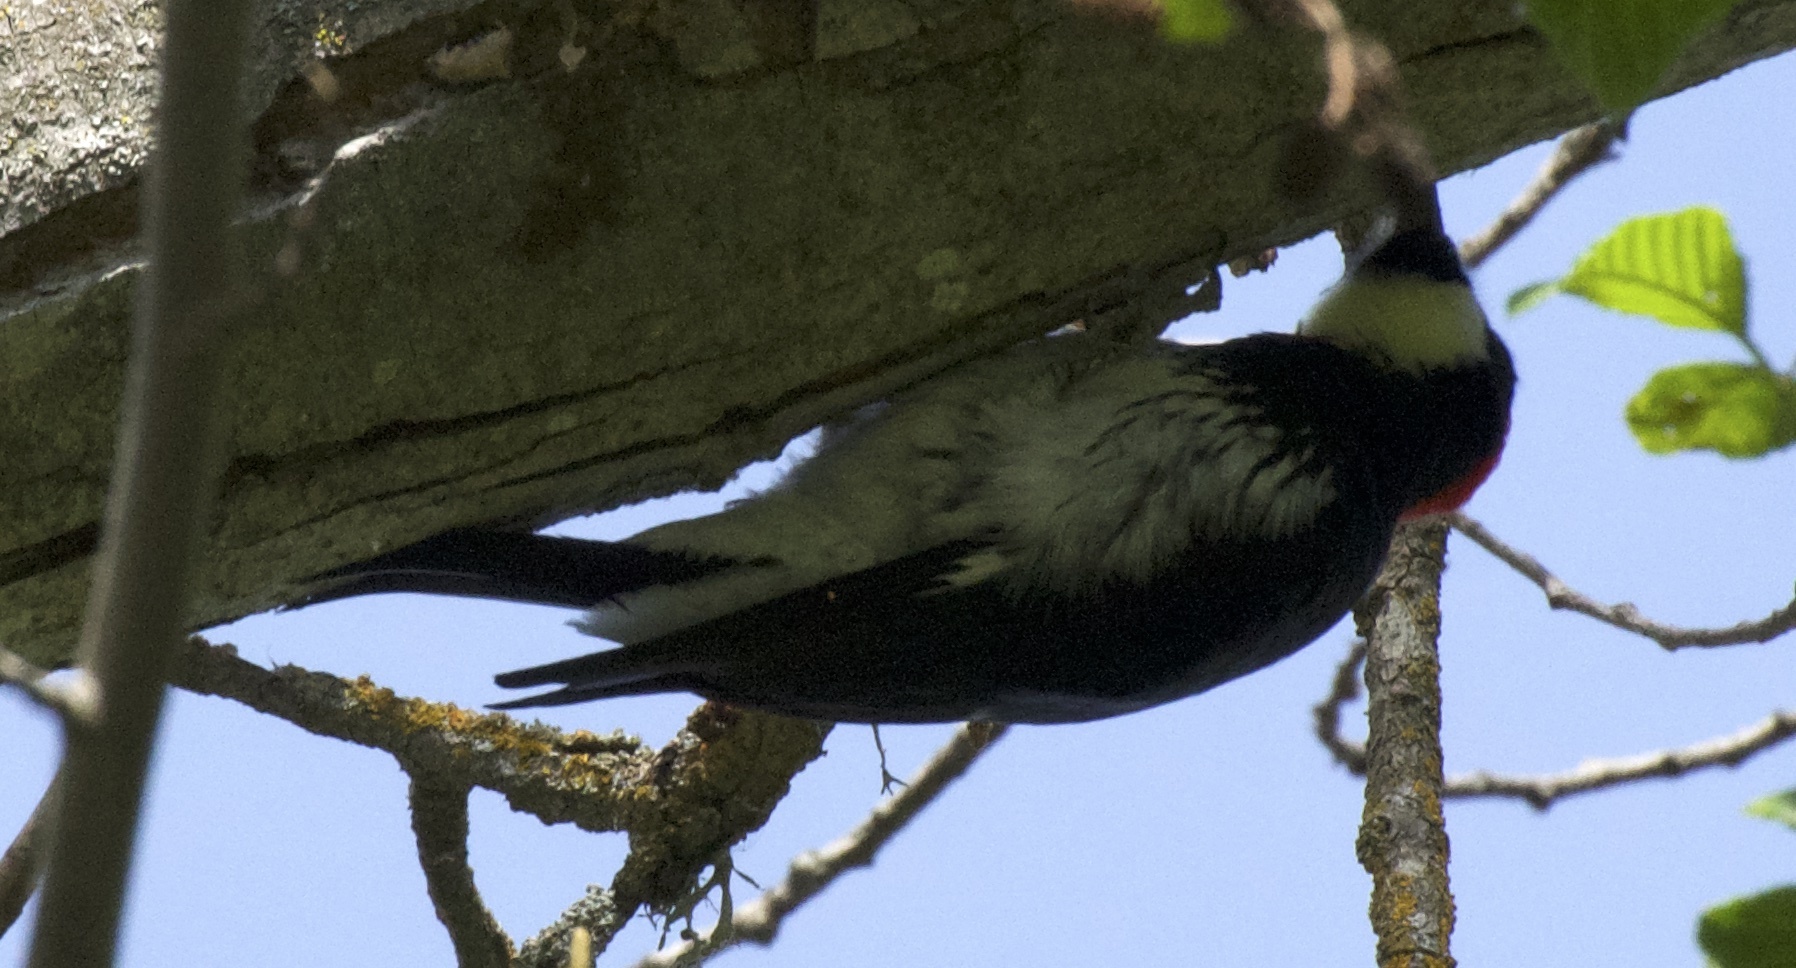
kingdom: Animalia
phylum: Chordata
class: Aves
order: Piciformes
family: Picidae
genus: Melanerpes
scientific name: Melanerpes formicivorus
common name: Acorn woodpecker
